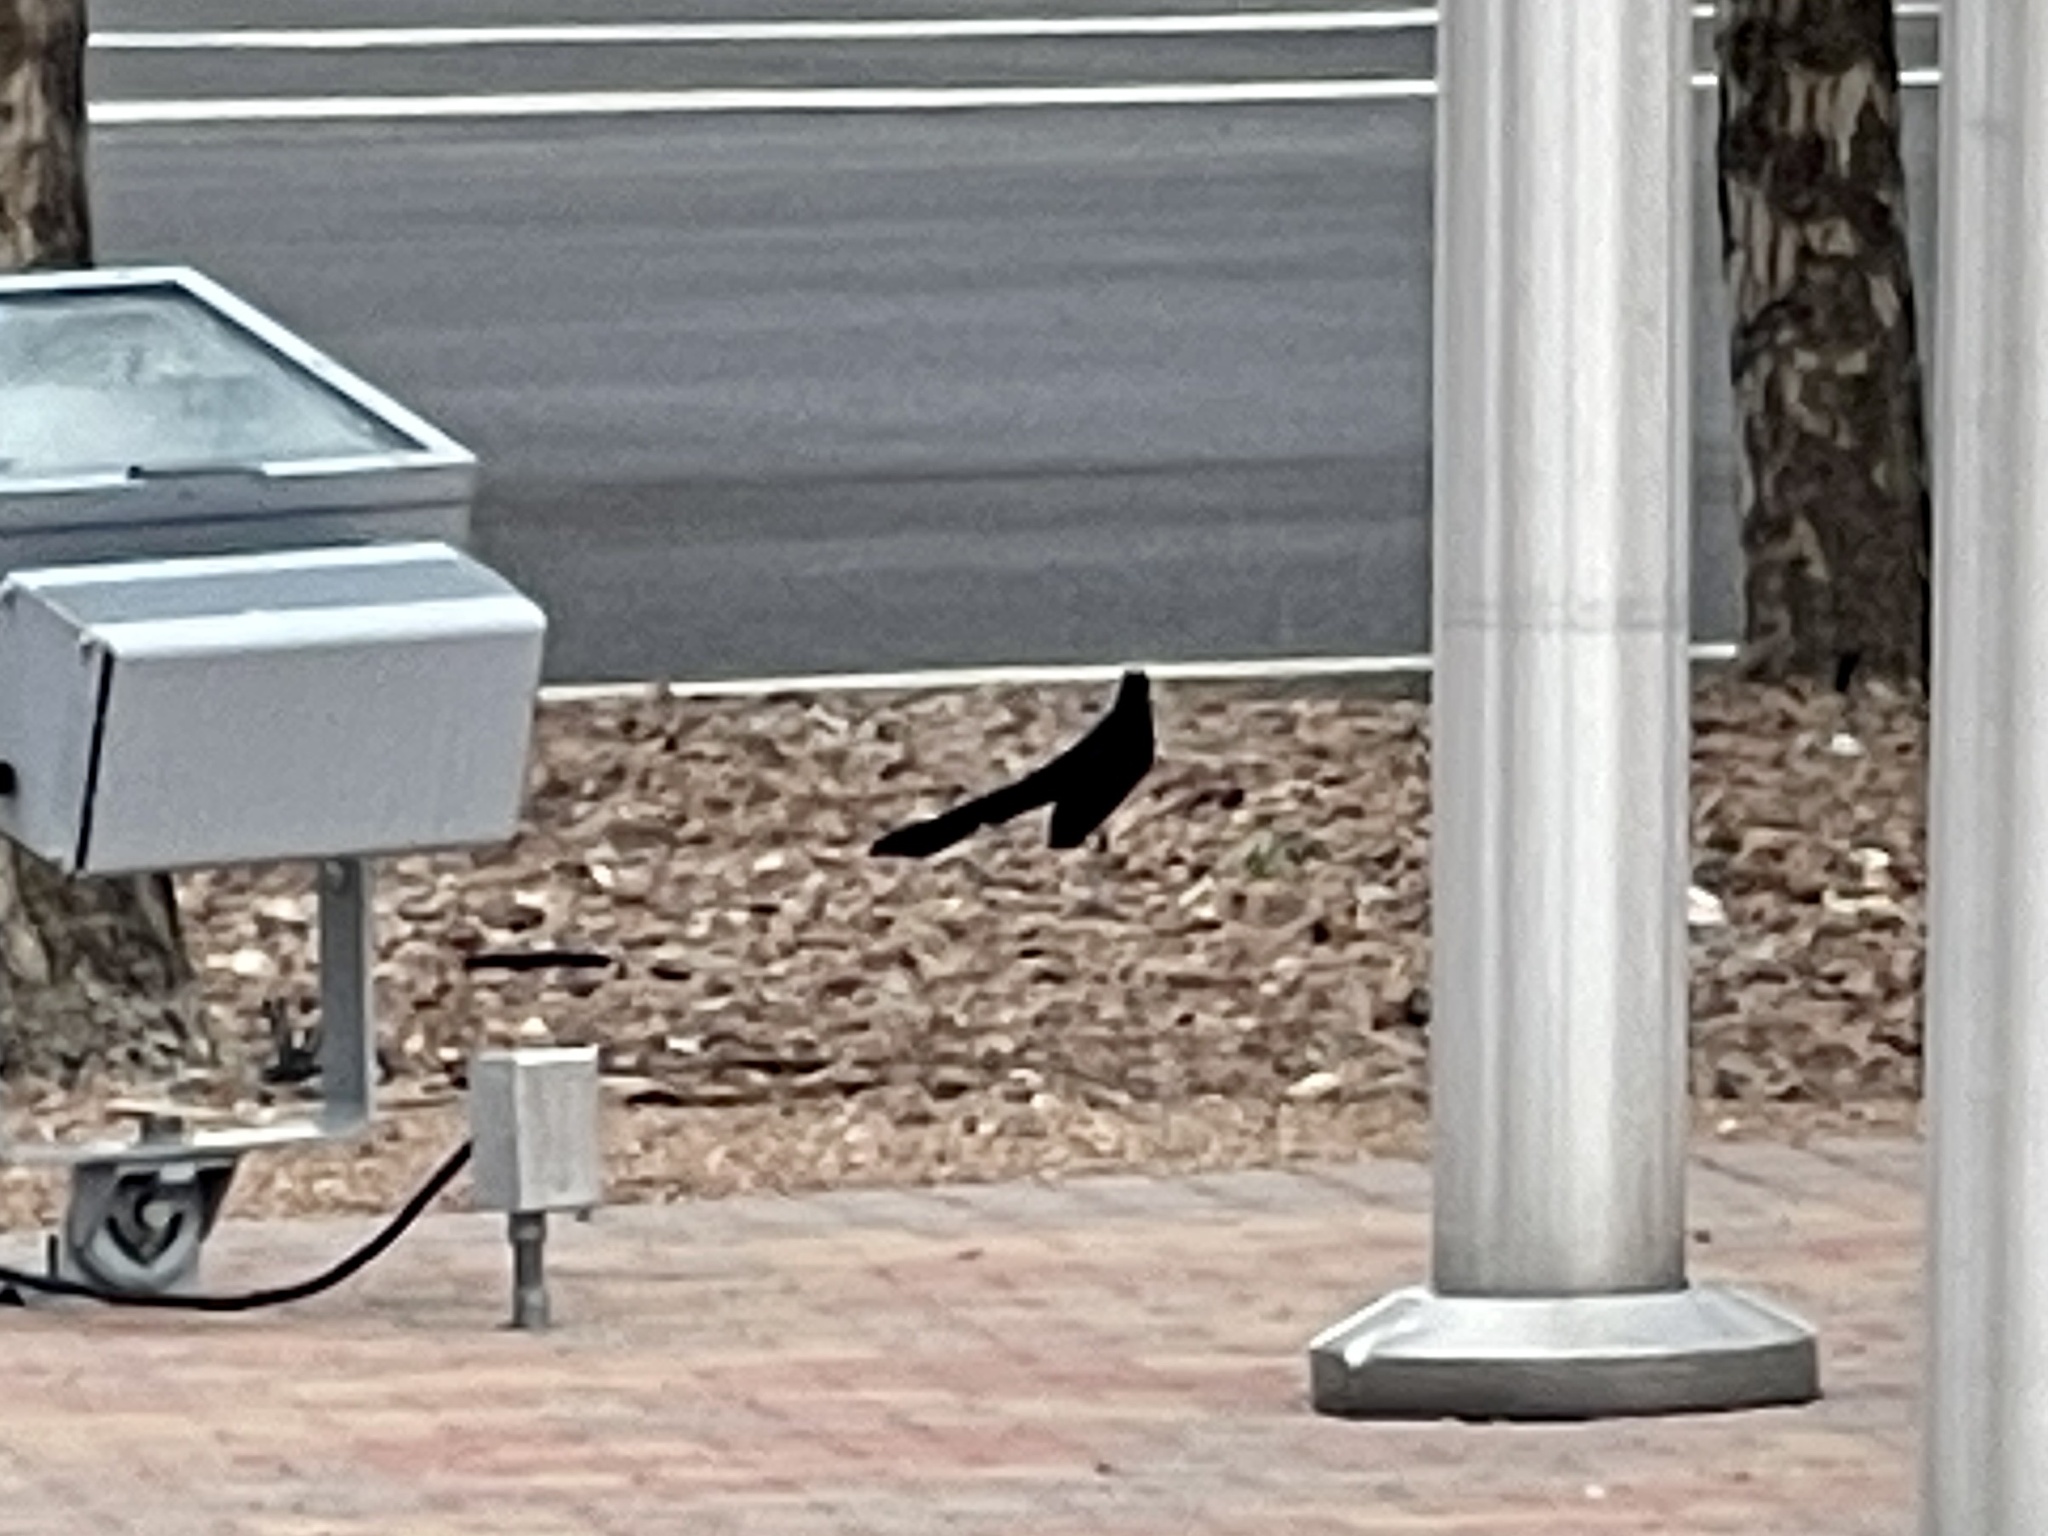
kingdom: Animalia
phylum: Chordata
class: Aves
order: Passeriformes
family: Icteridae
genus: Quiscalus
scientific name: Quiscalus mexicanus
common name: Great-tailed grackle
